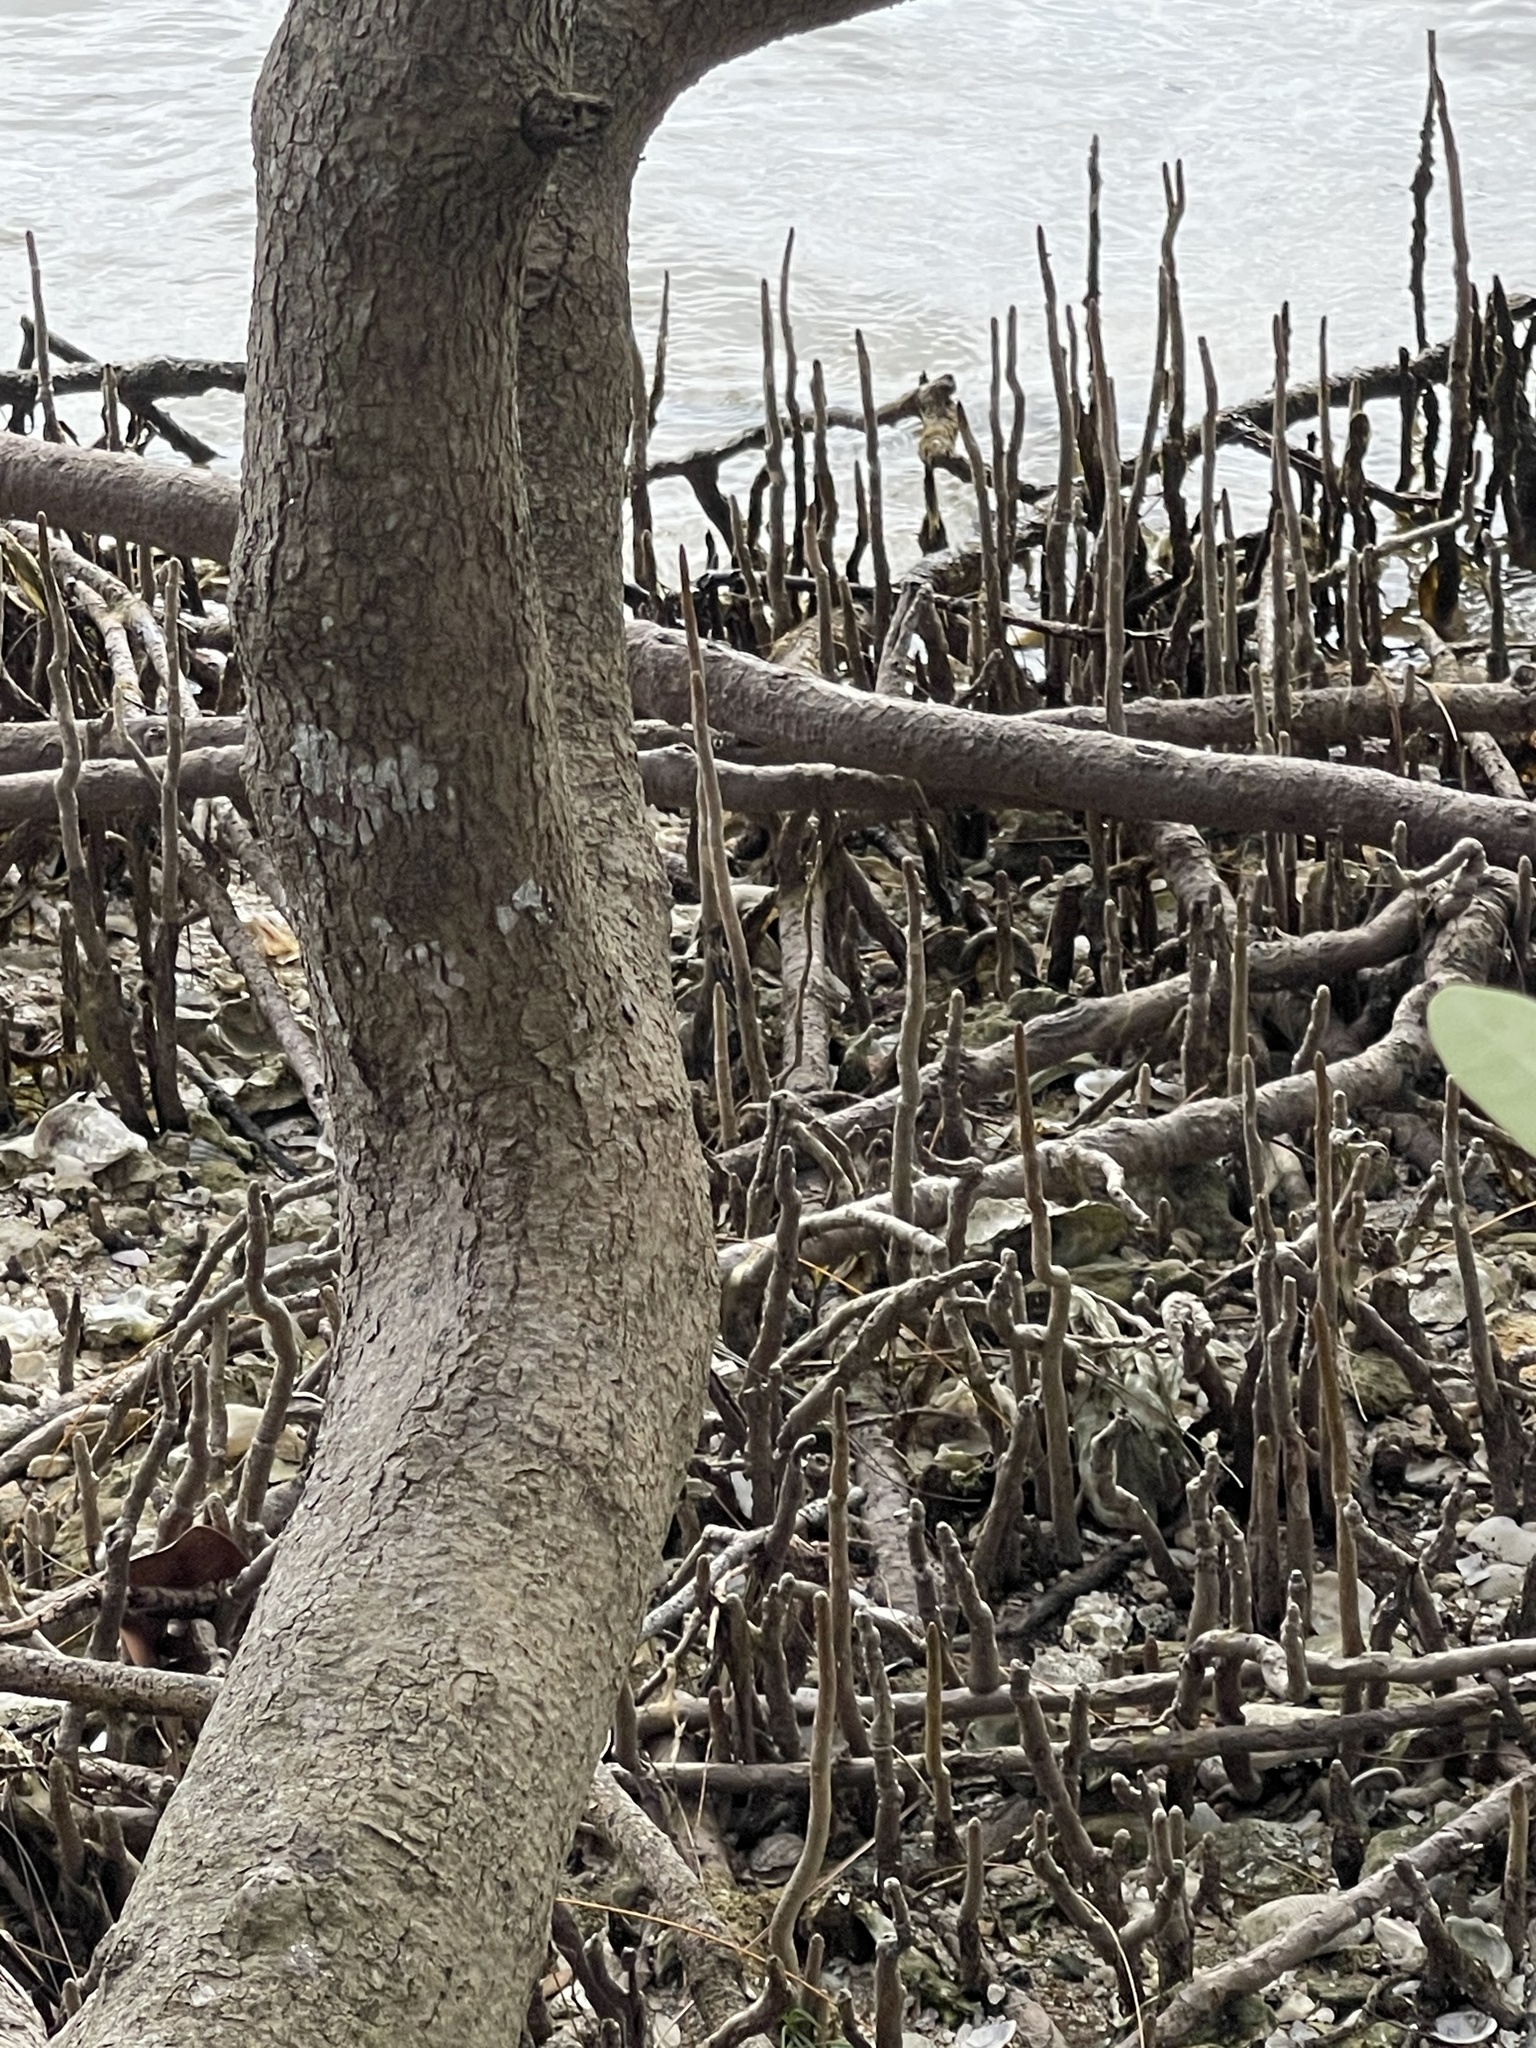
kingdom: Plantae
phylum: Tracheophyta
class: Magnoliopsida
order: Lamiales
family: Acanthaceae
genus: Avicennia
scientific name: Avicennia germinans
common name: Black mangrove
